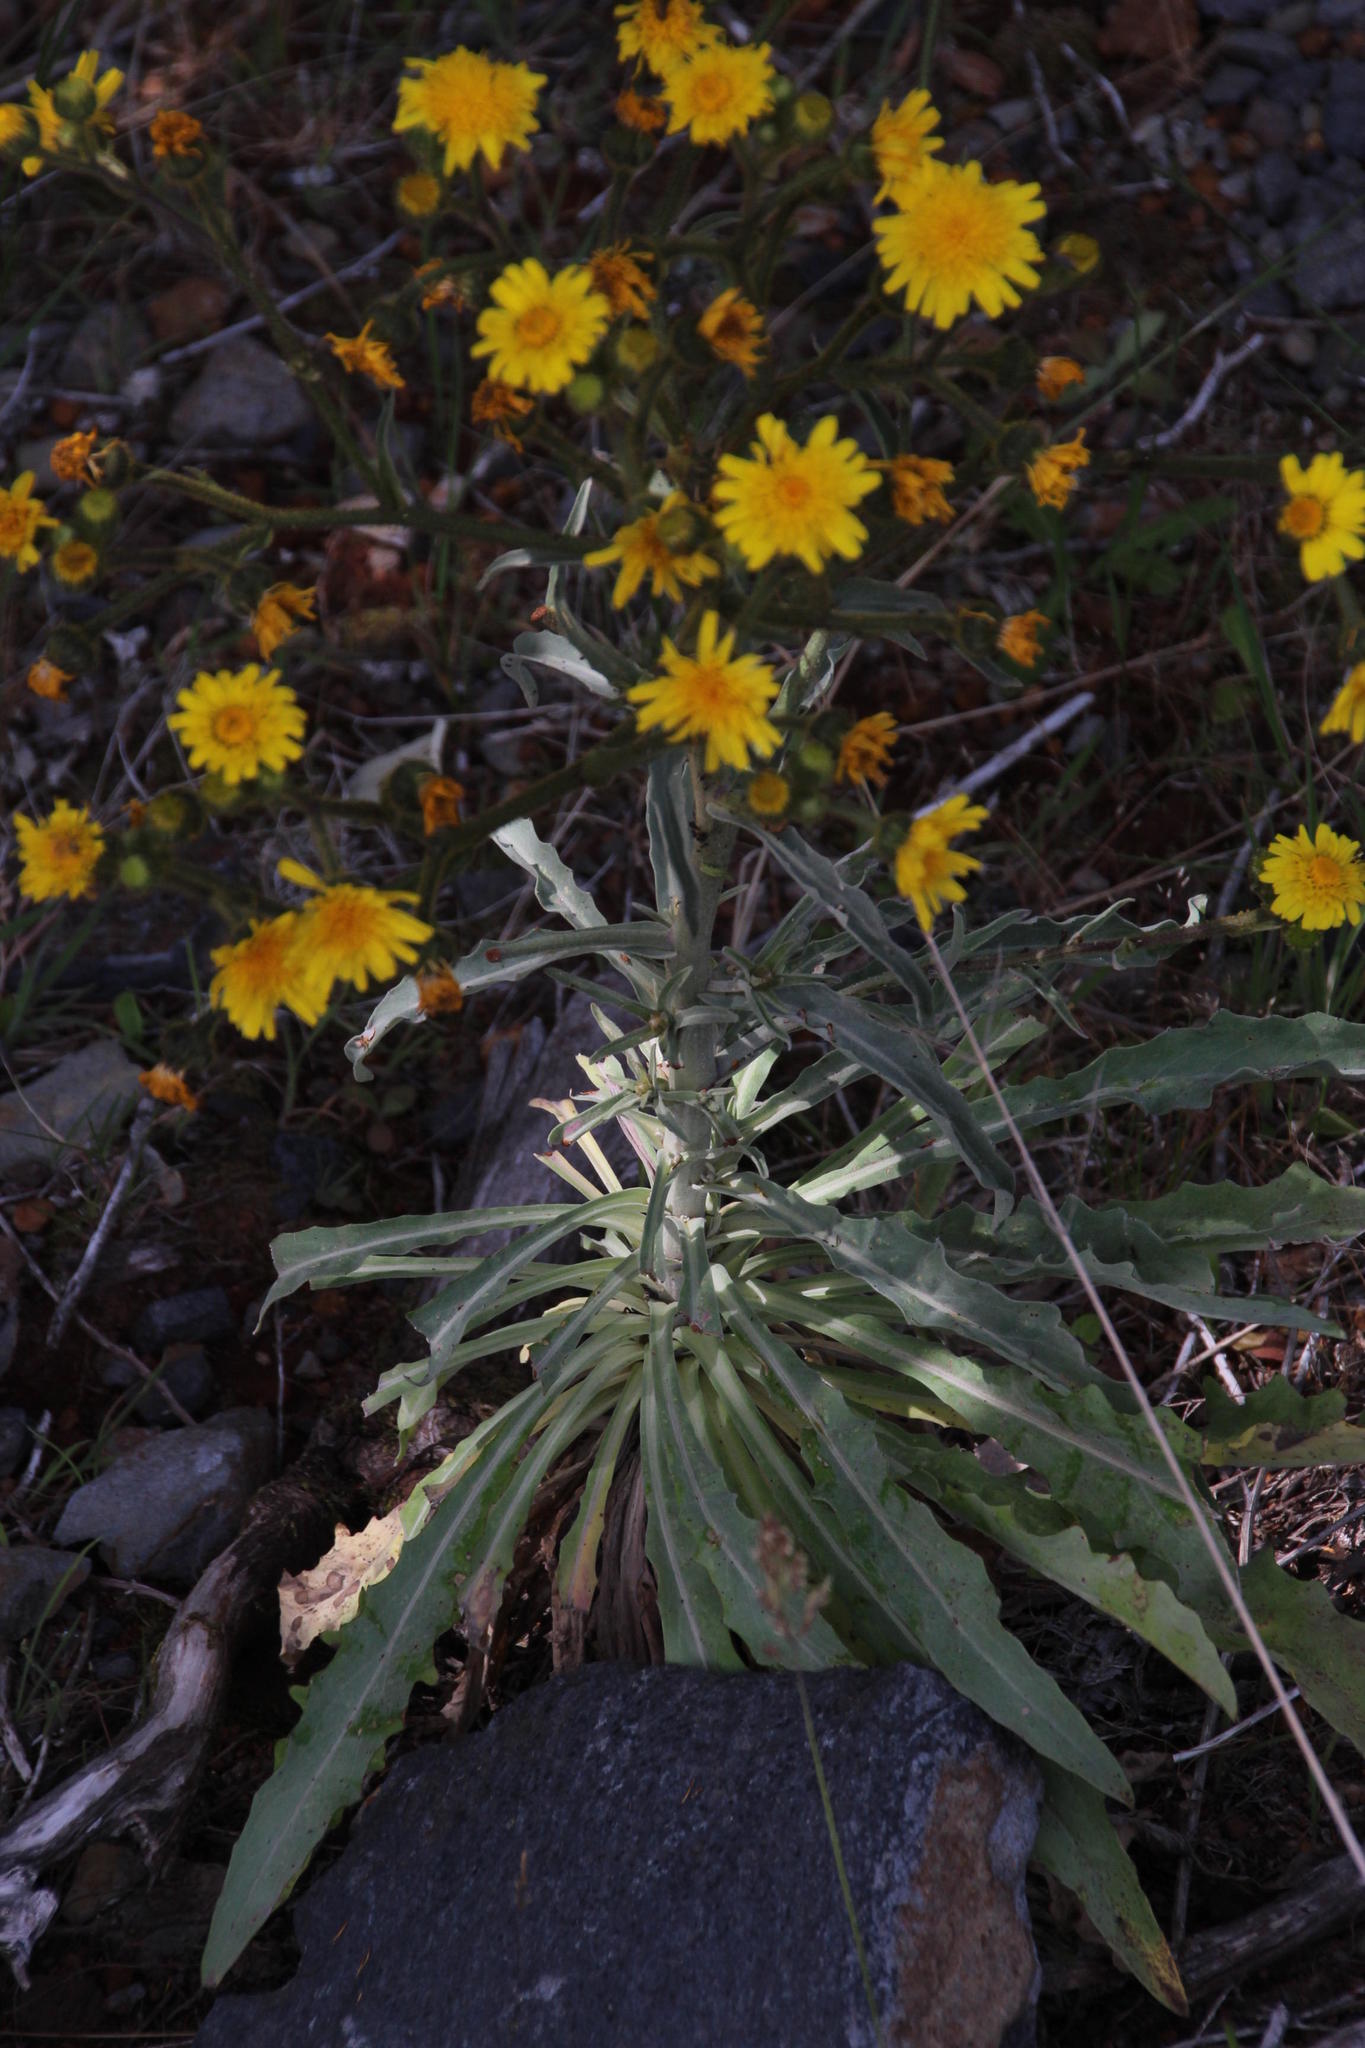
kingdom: Plantae
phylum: Tracheophyta
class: Magnoliopsida
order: Asterales
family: Asteraceae
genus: Andryala
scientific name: Andryala glandulosa
